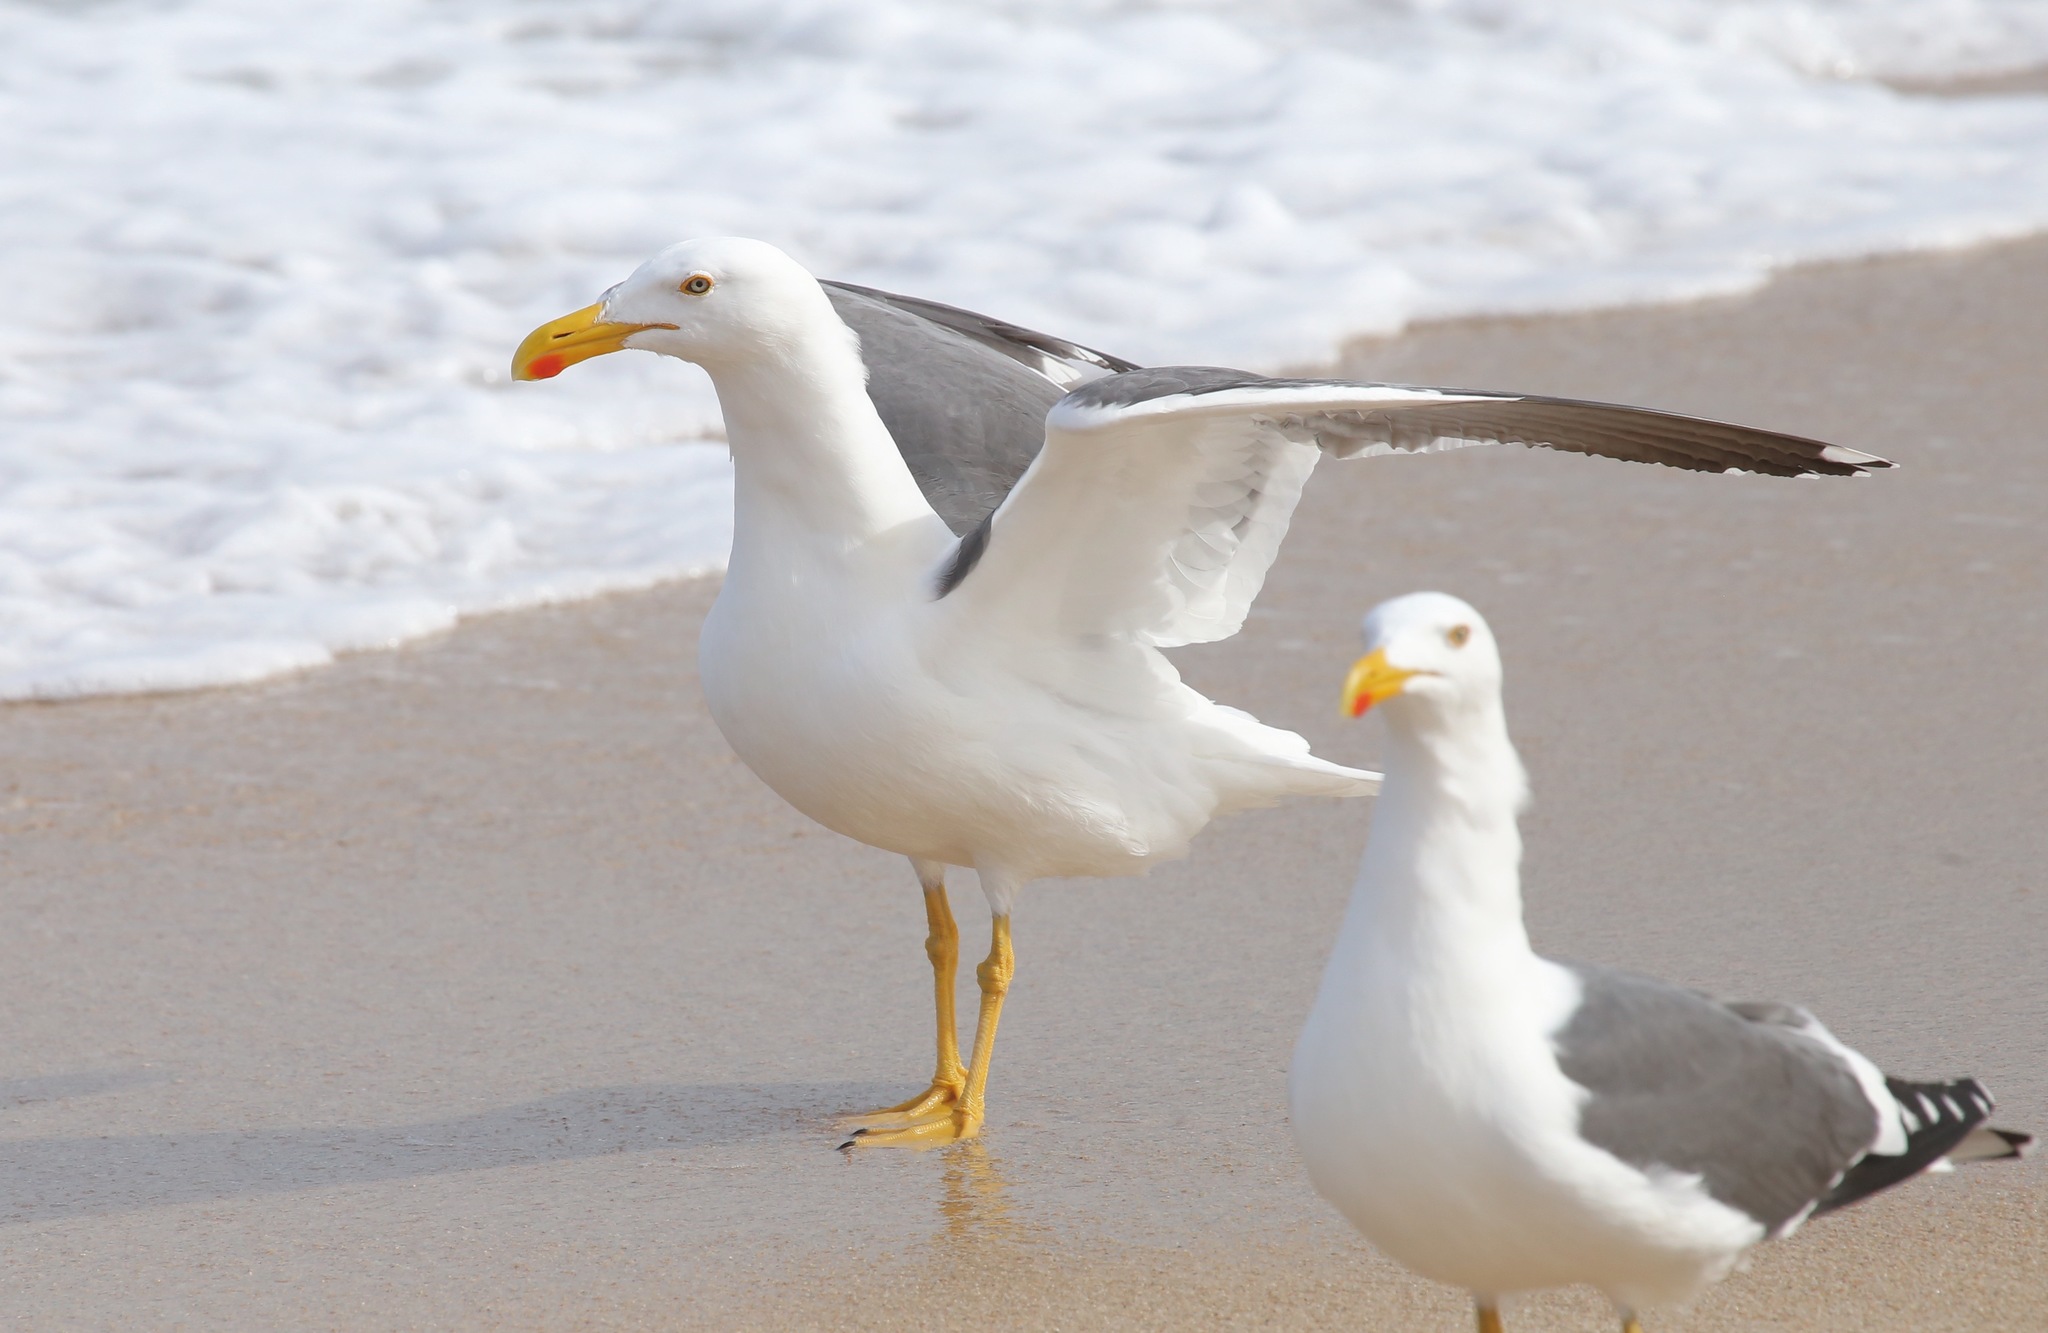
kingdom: Animalia
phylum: Chordata
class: Aves
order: Charadriiformes
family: Laridae
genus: Larus
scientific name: Larus livens
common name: Yellow-footed gull
